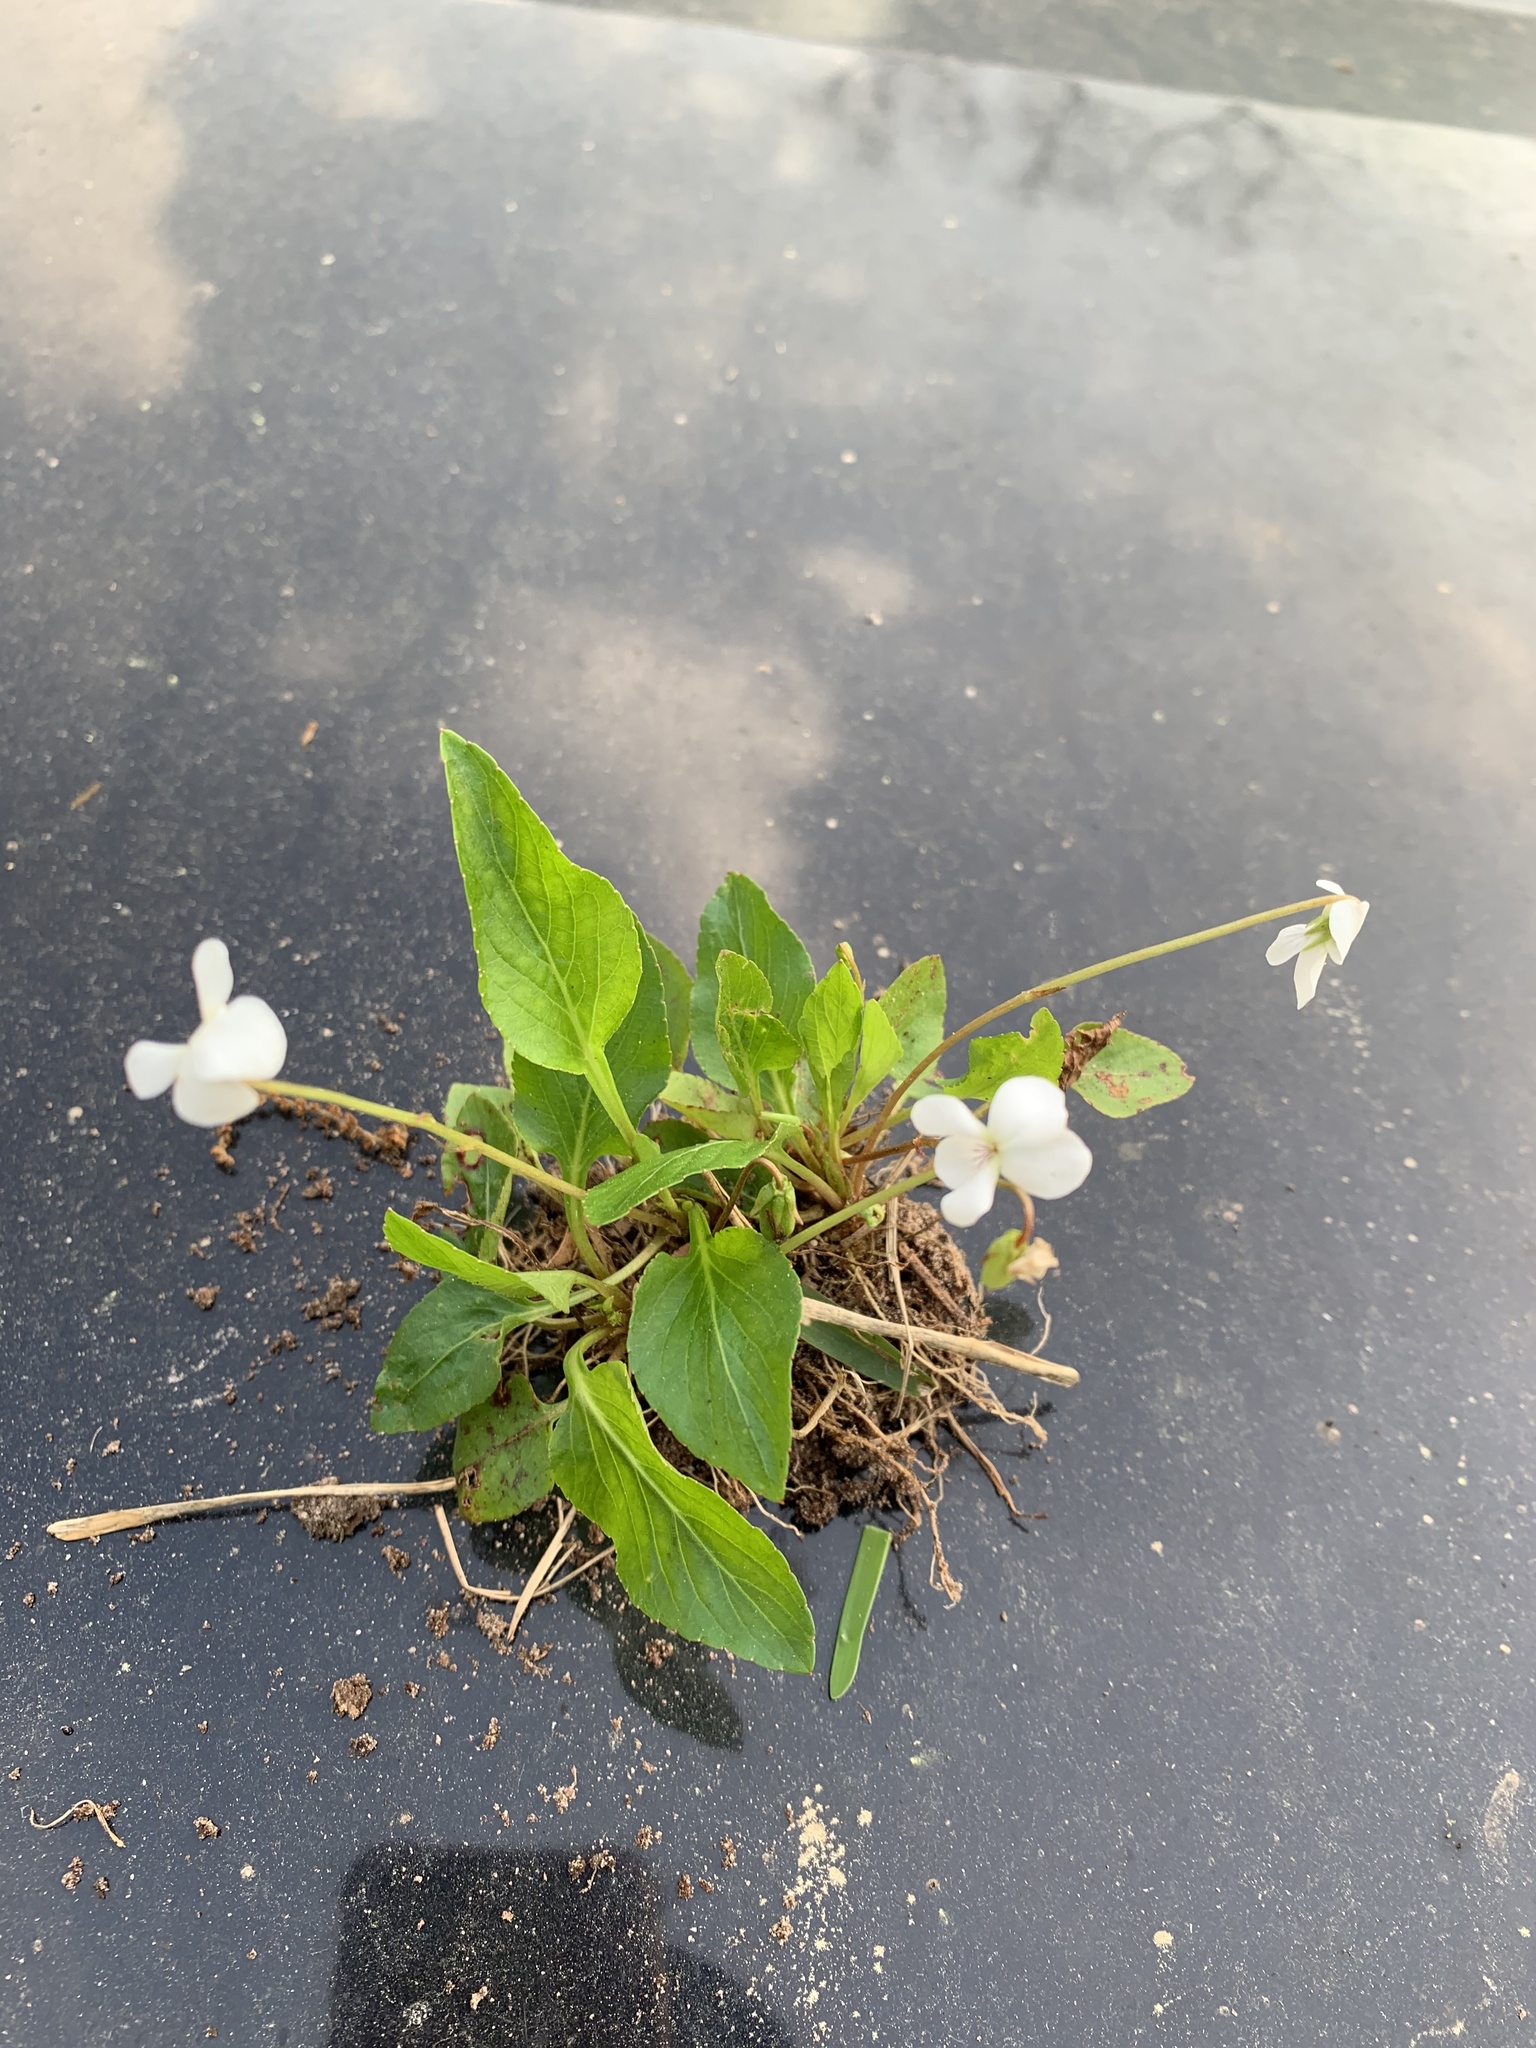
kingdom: Plantae
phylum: Tracheophyta
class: Magnoliopsida
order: Malpighiales
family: Violaceae
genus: Viola
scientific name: Viola primulifolia
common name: Primrose-leaf violet
